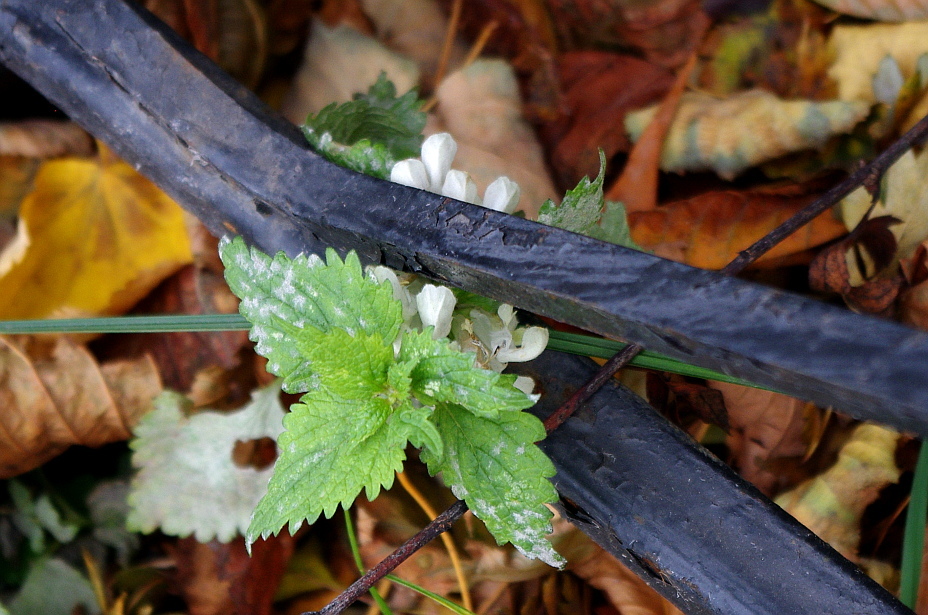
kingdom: Plantae
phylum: Tracheophyta
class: Magnoliopsida
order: Lamiales
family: Lamiaceae
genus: Lamium
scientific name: Lamium album
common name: White dead-nettle
